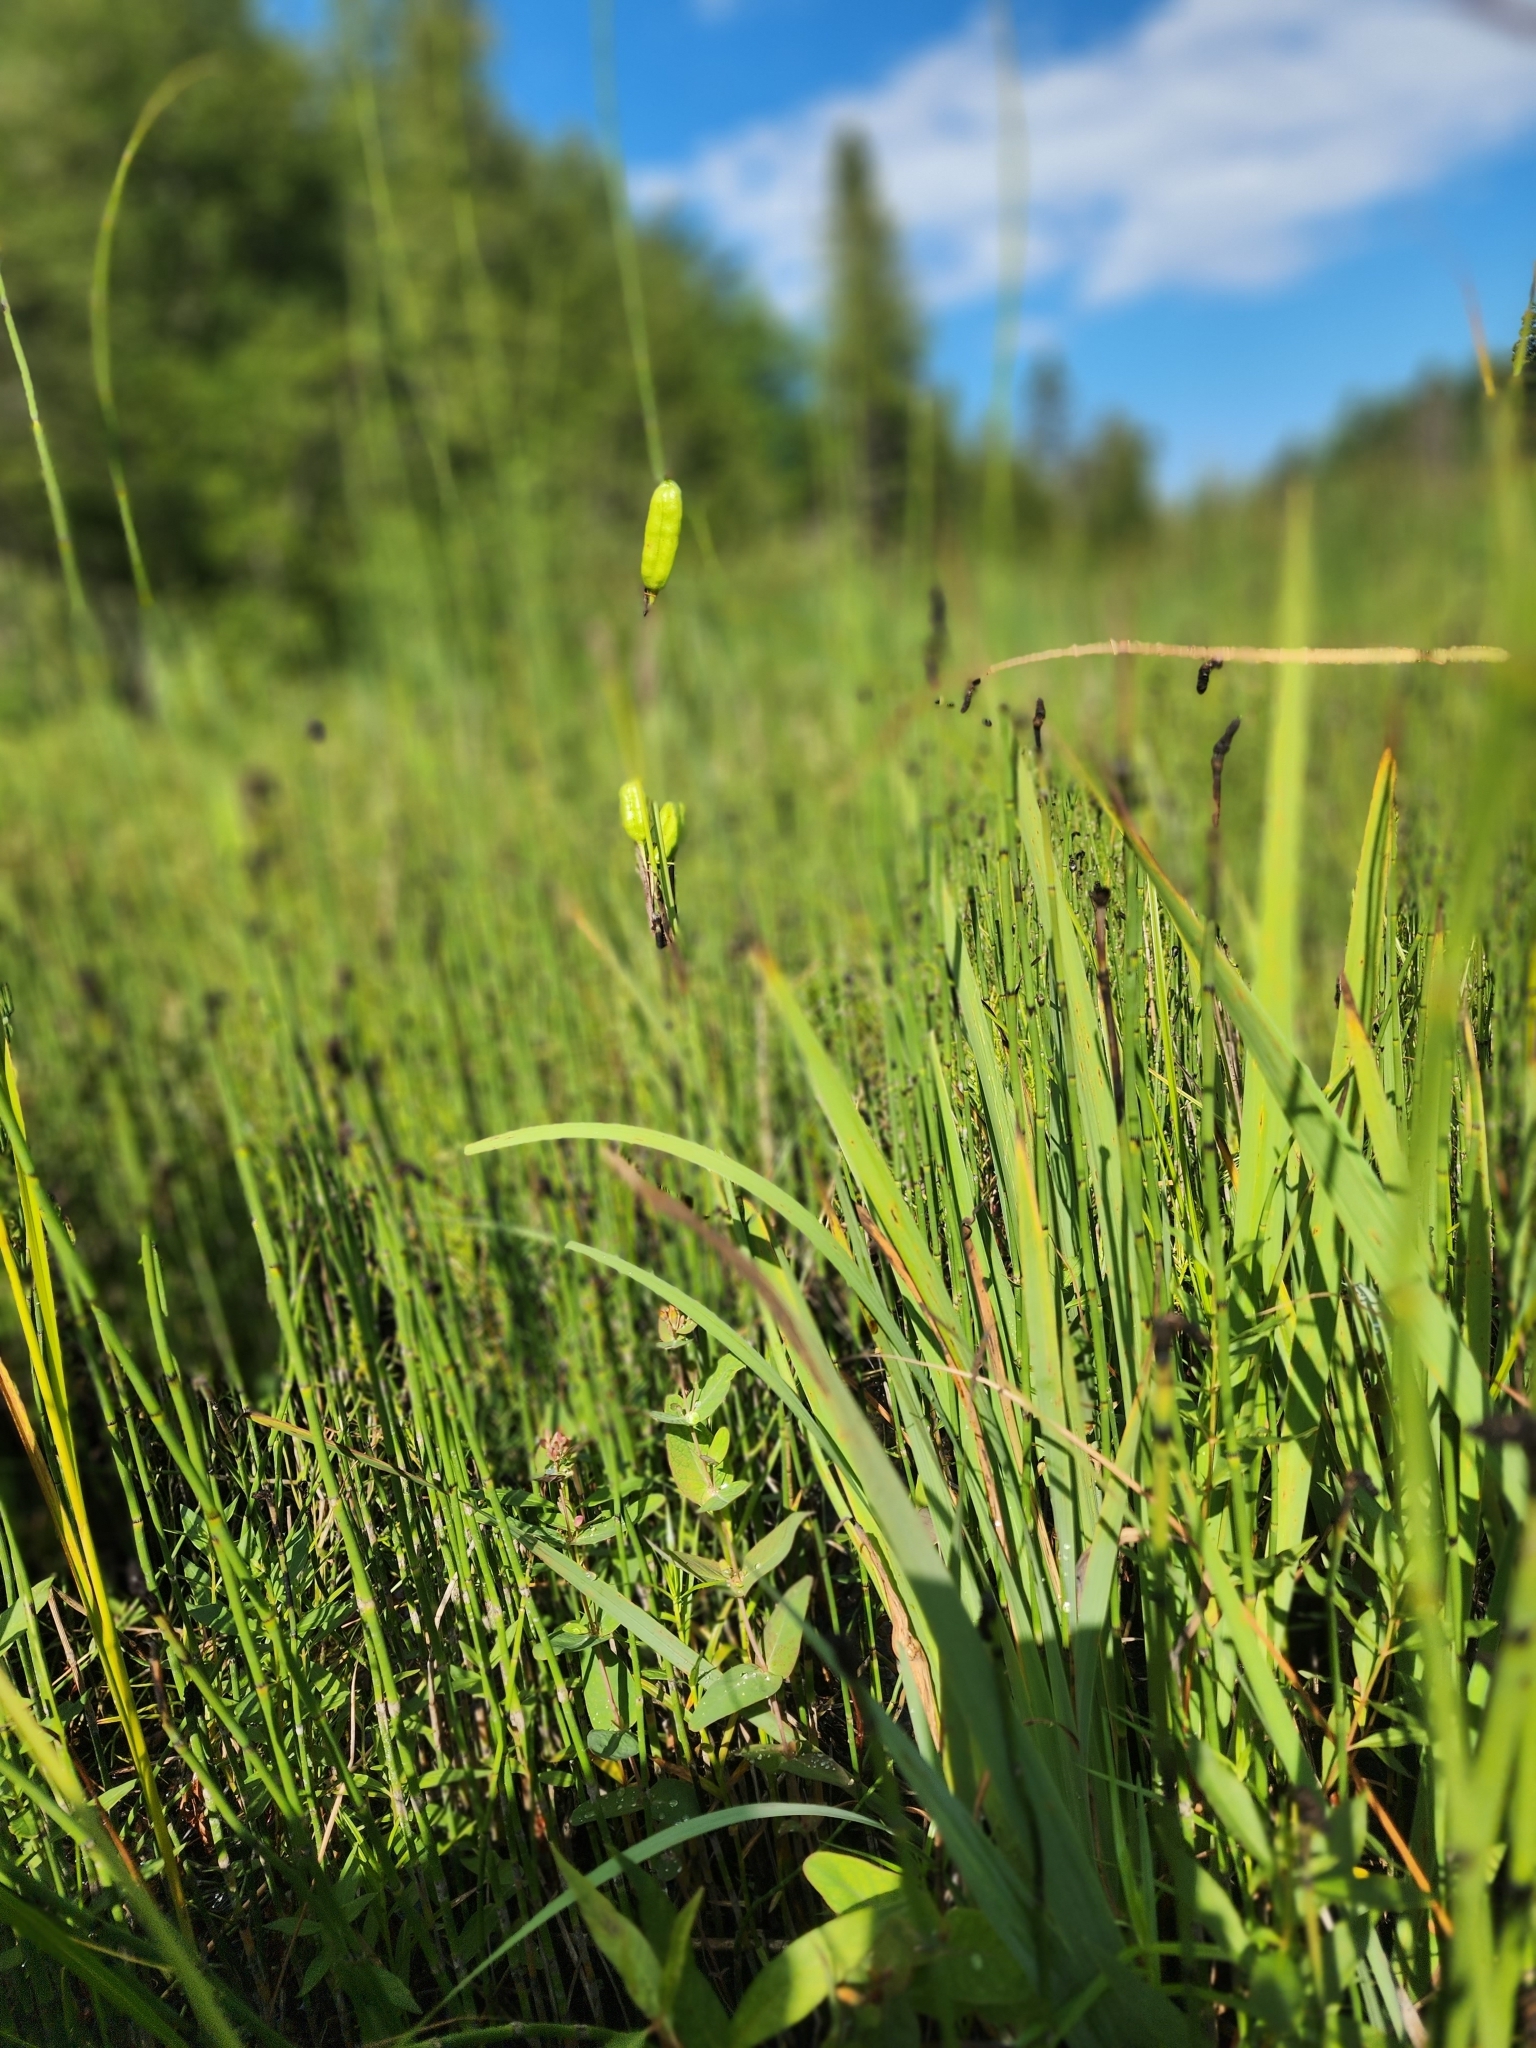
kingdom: Plantae
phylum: Tracheophyta
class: Liliopsida
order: Asparagales
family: Iridaceae
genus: Iris
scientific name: Iris versicolor
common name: Purple iris
